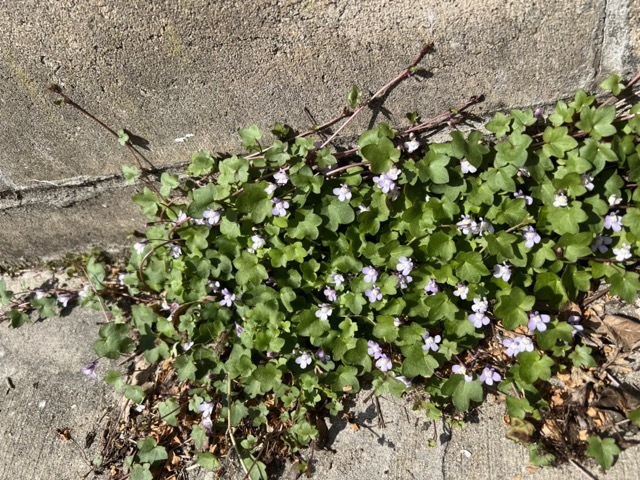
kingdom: Plantae
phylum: Tracheophyta
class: Magnoliopsida
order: Lamiales
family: Plantaginaceae
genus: Cymbalaria
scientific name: Cymbalaria muralis
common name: Ivy-leaved toadflax
